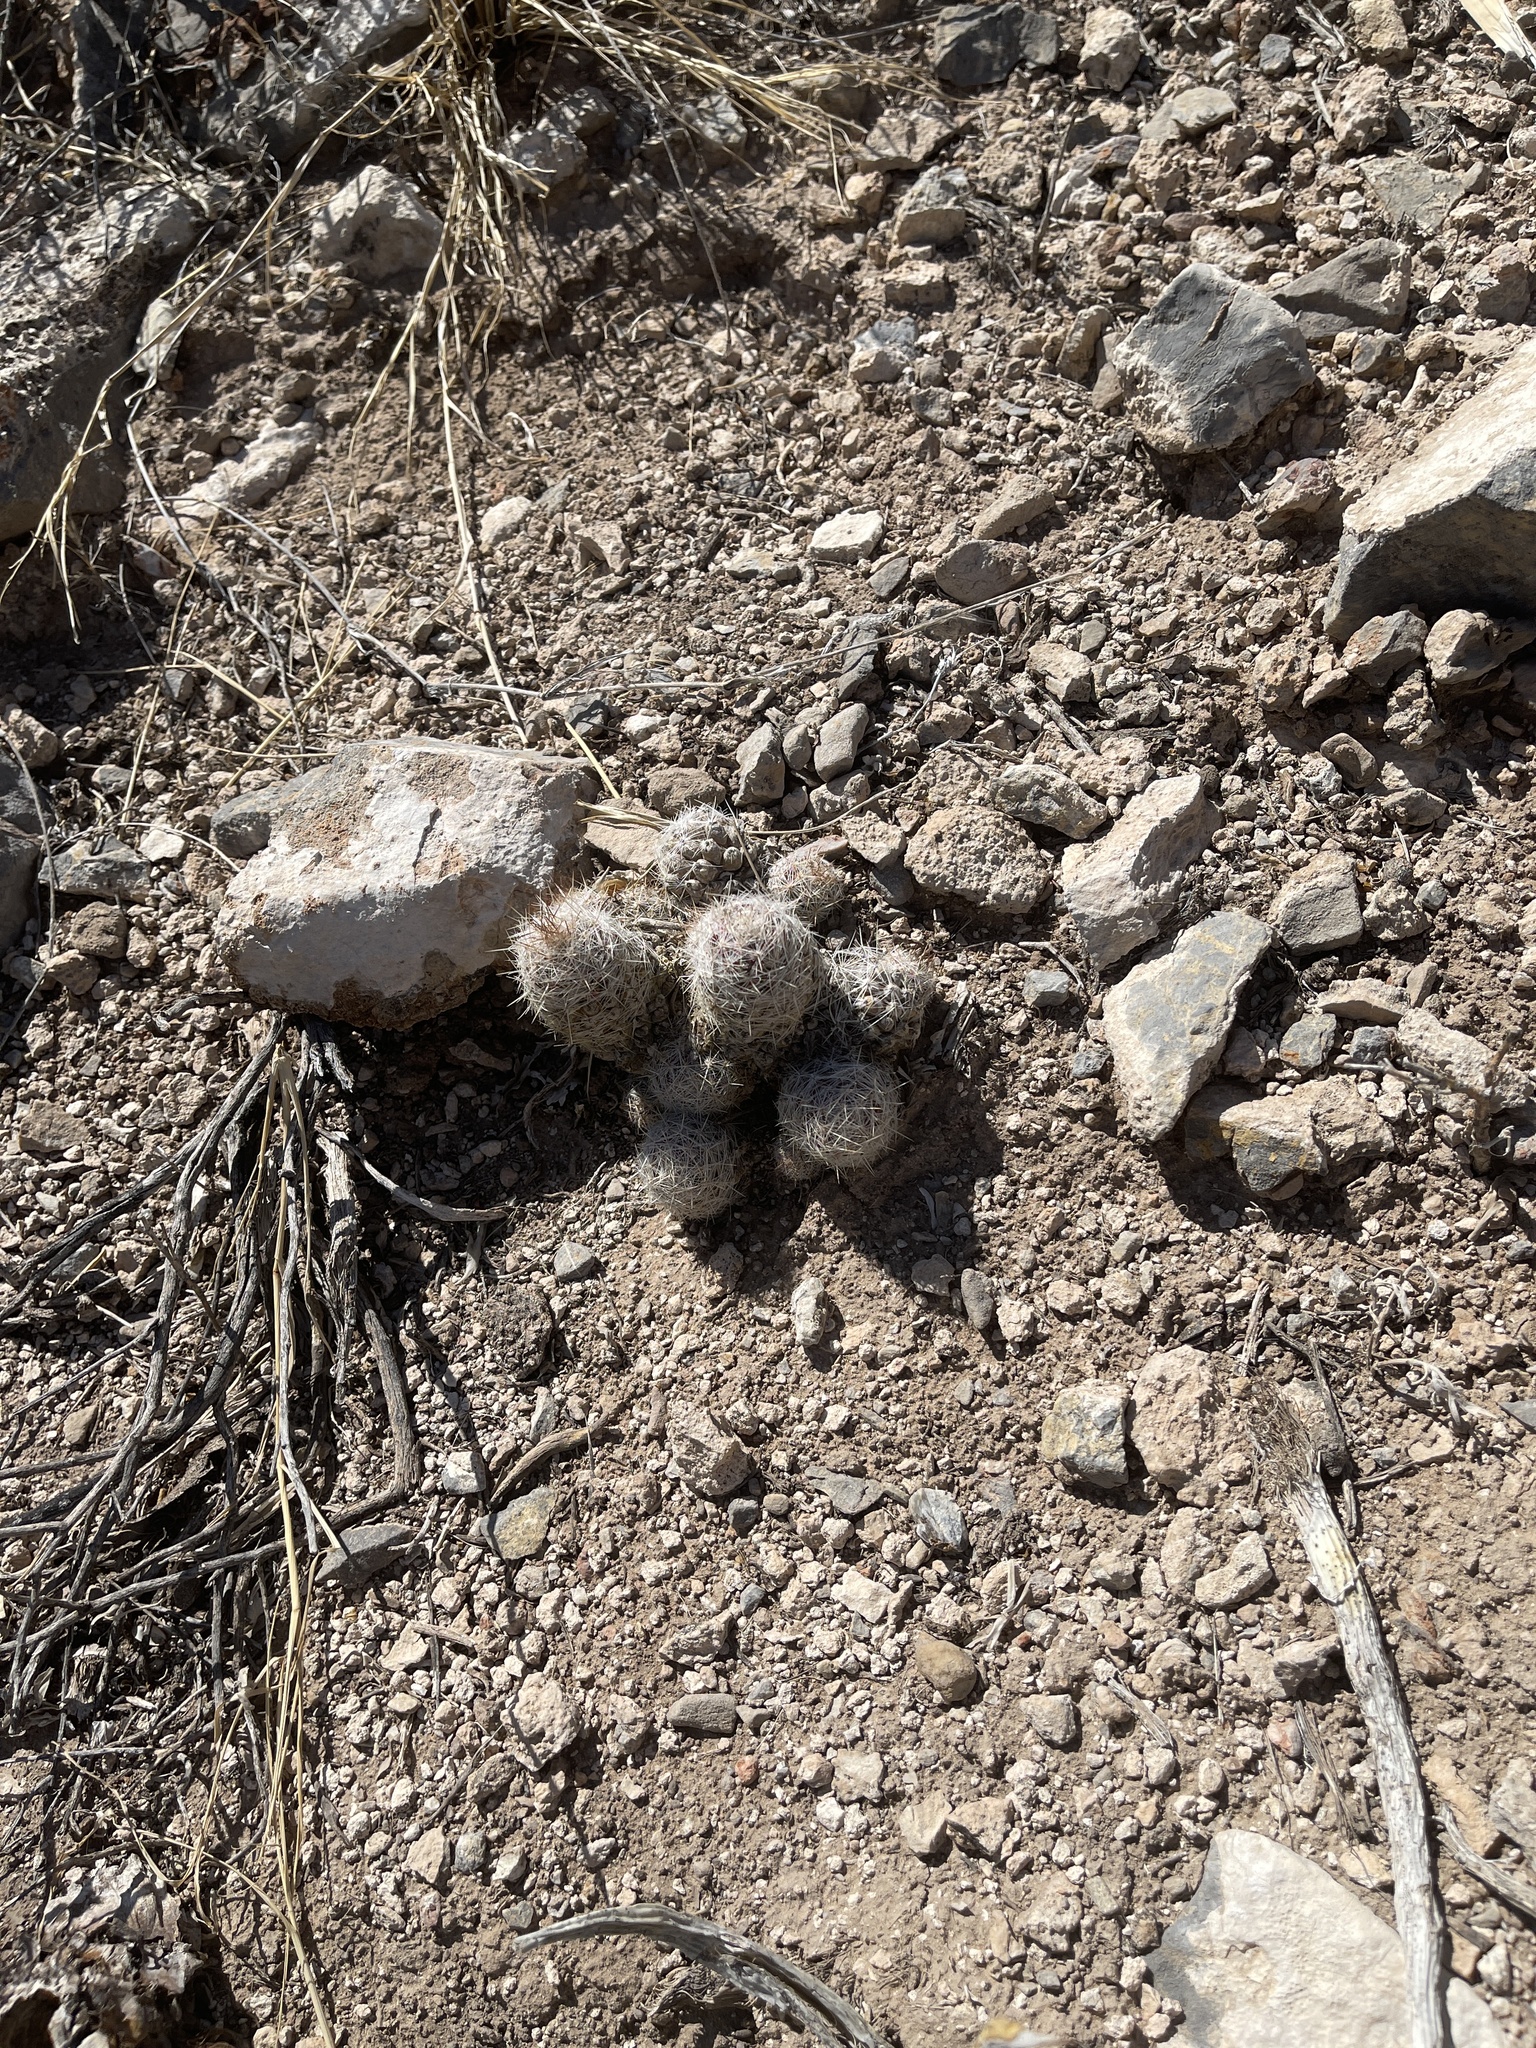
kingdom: Plantae
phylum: Tracheophyta
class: Magnoliopsida
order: Caryophyllales
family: Cactaceae
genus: Pelecyphora
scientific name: Pelecyphora tuberculosa
